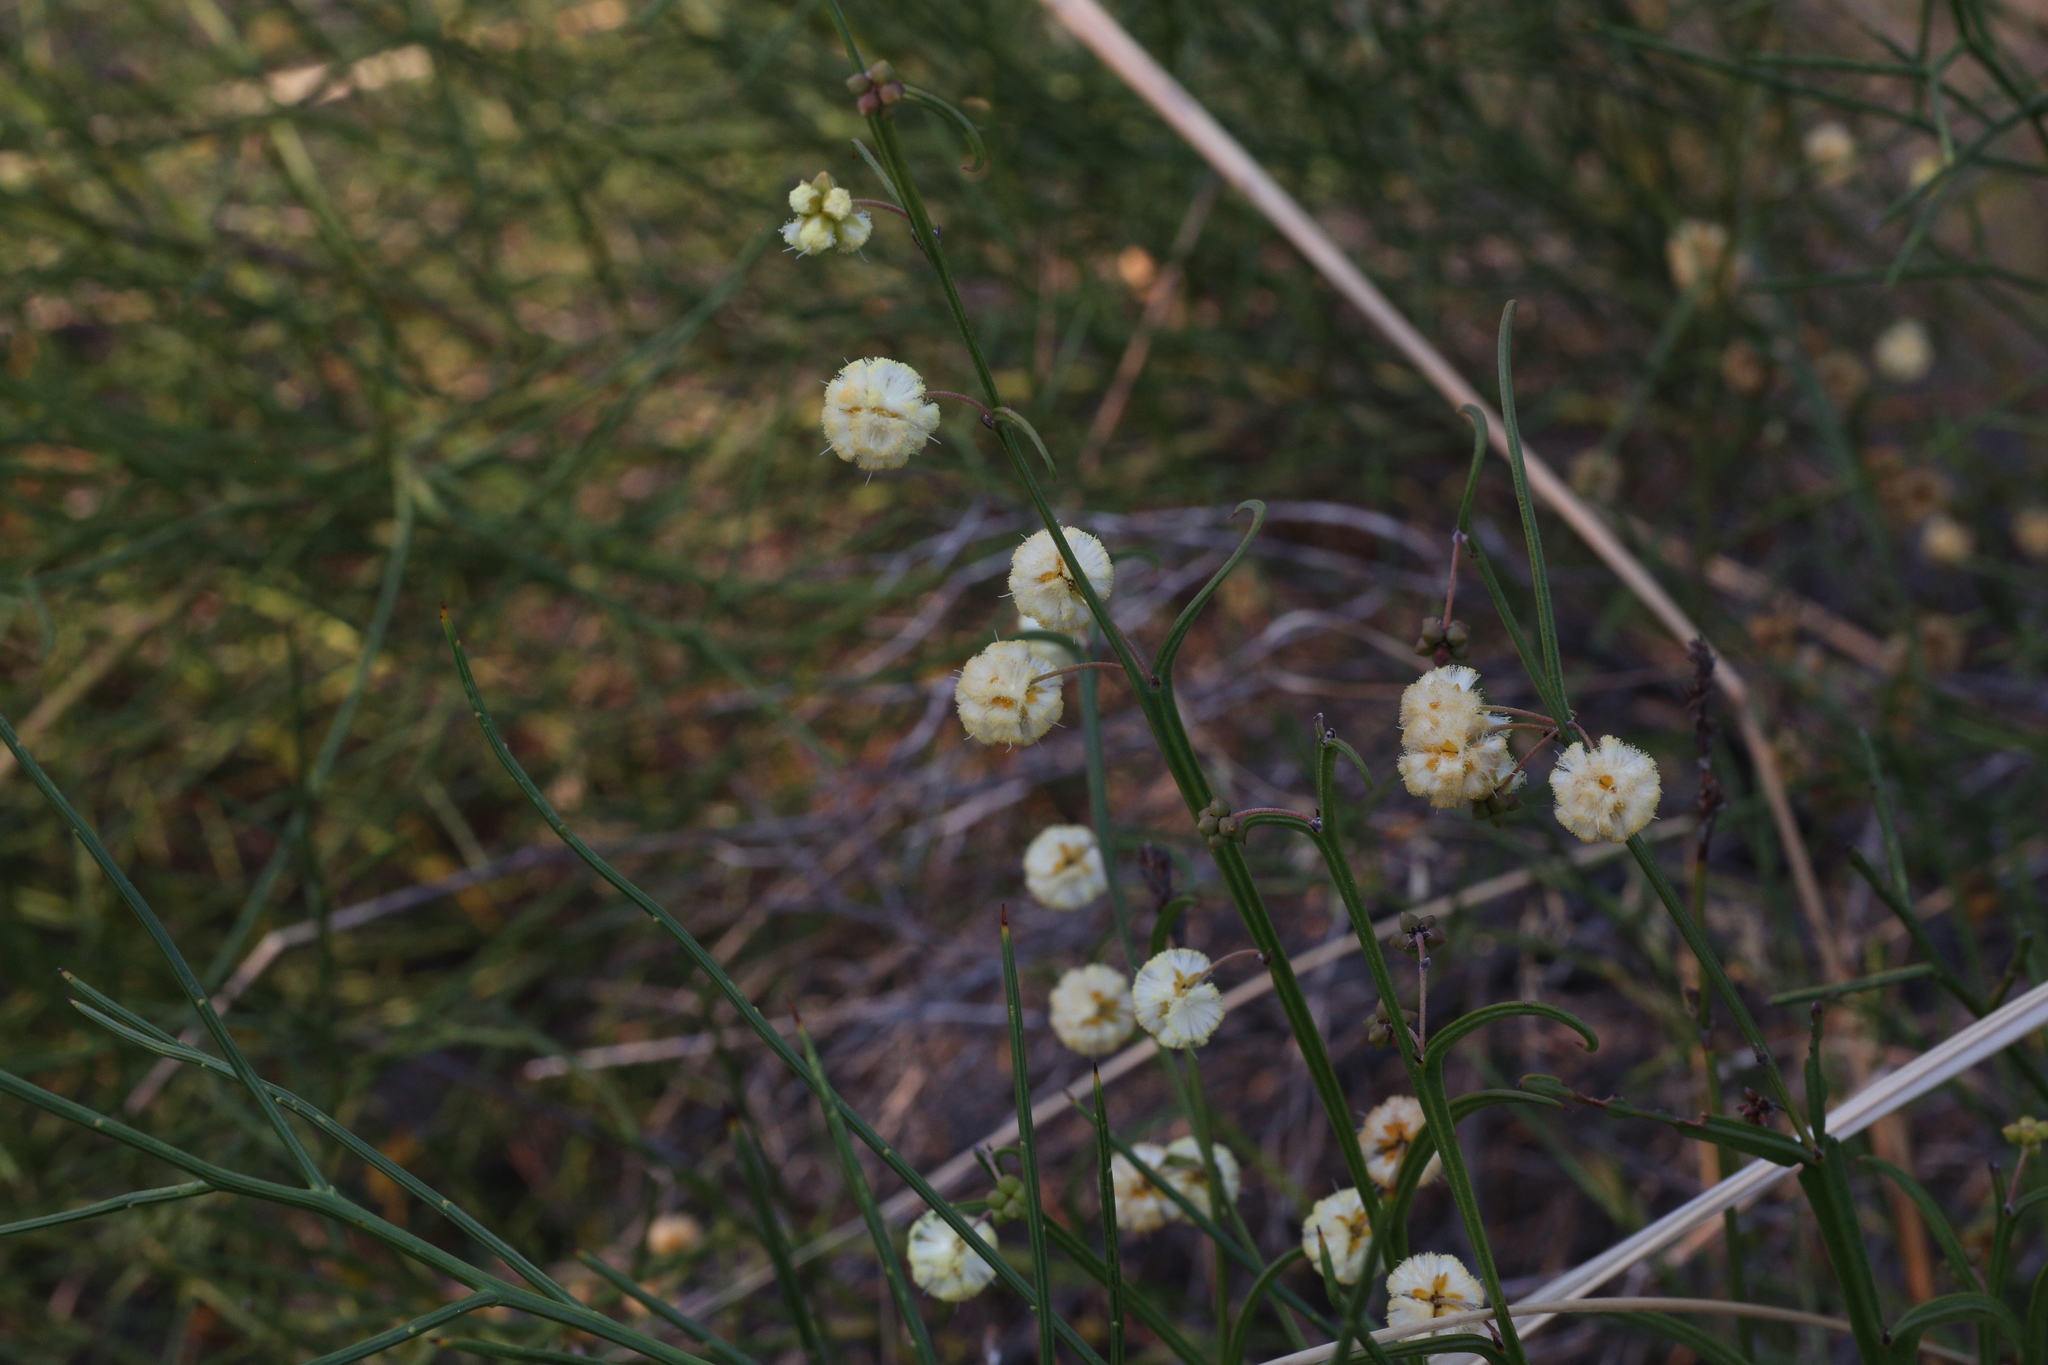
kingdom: Plantae
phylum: Tracheophyta
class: Magnoliopsida
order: Fabales
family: Fabaceae
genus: Acacia
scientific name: Acacia stenoptera
